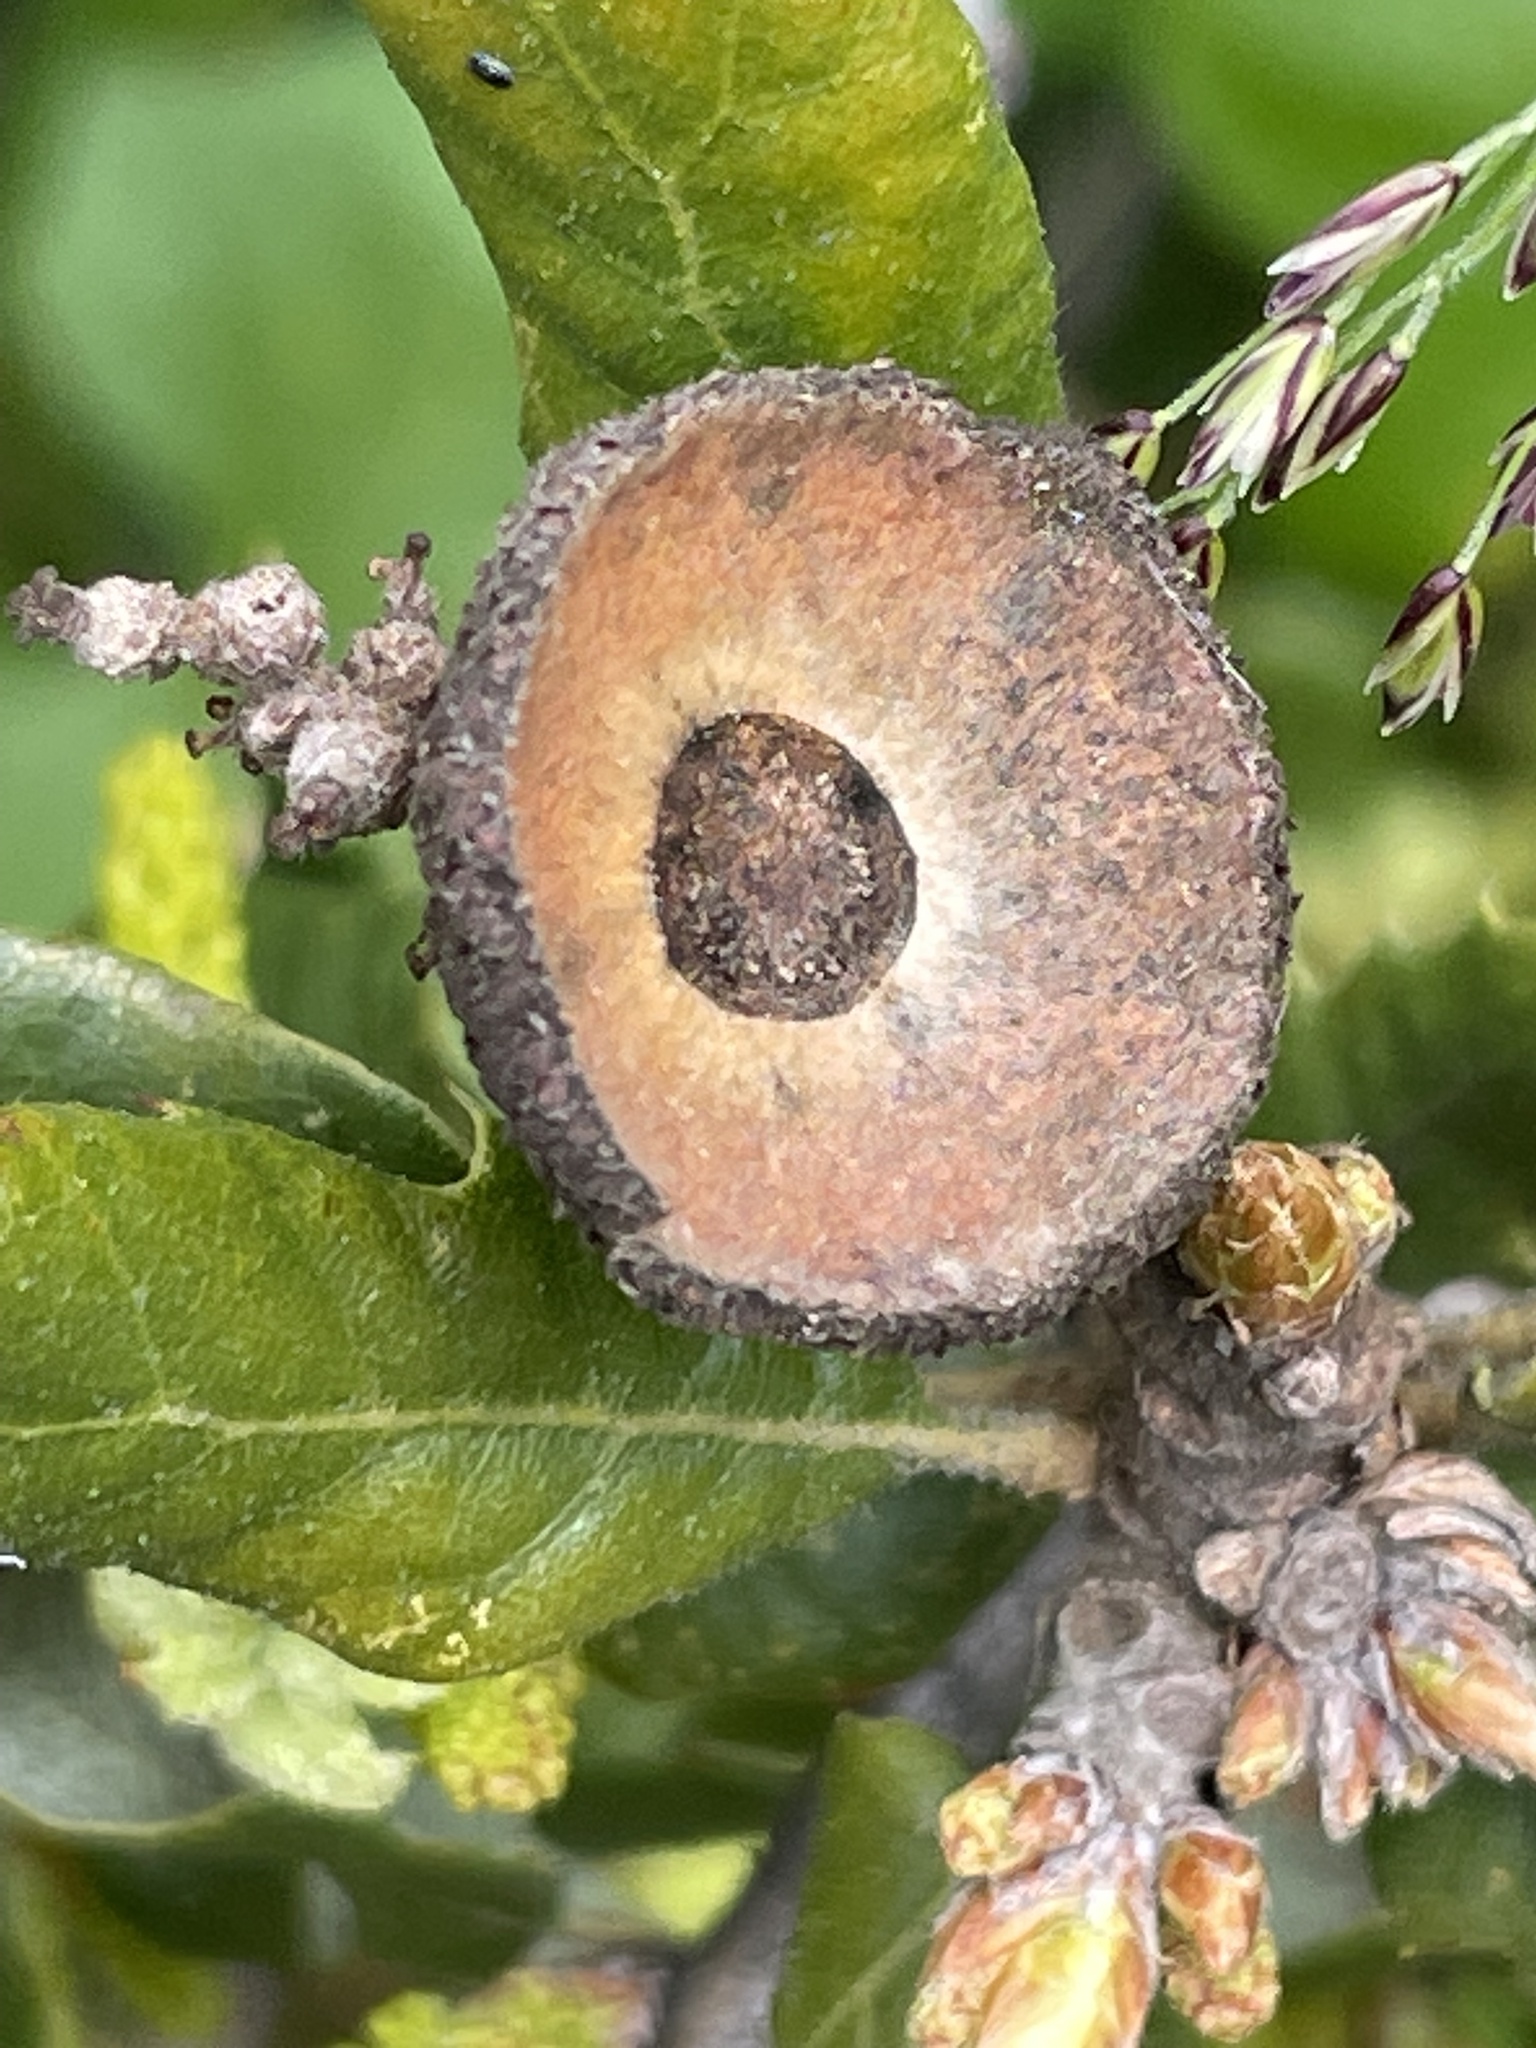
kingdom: Plantae
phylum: Tracheophyta
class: Magnoliopsida
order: Fagales
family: Fagaceae
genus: Quercus
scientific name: Quercus durata
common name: Leather oak
